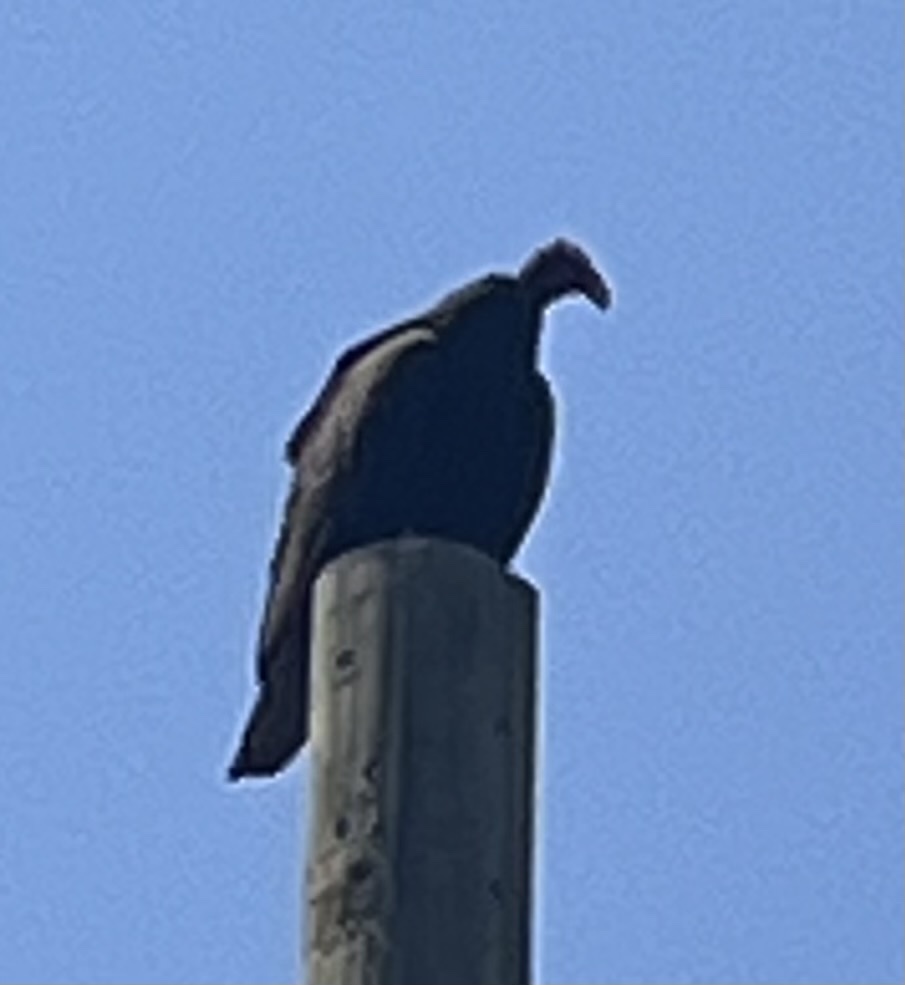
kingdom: Animalia
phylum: Chordata
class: Aves
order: Accipitriformes
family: Cathartidae
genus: Cathartes
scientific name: Cathartes aura
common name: Turkey vulture
